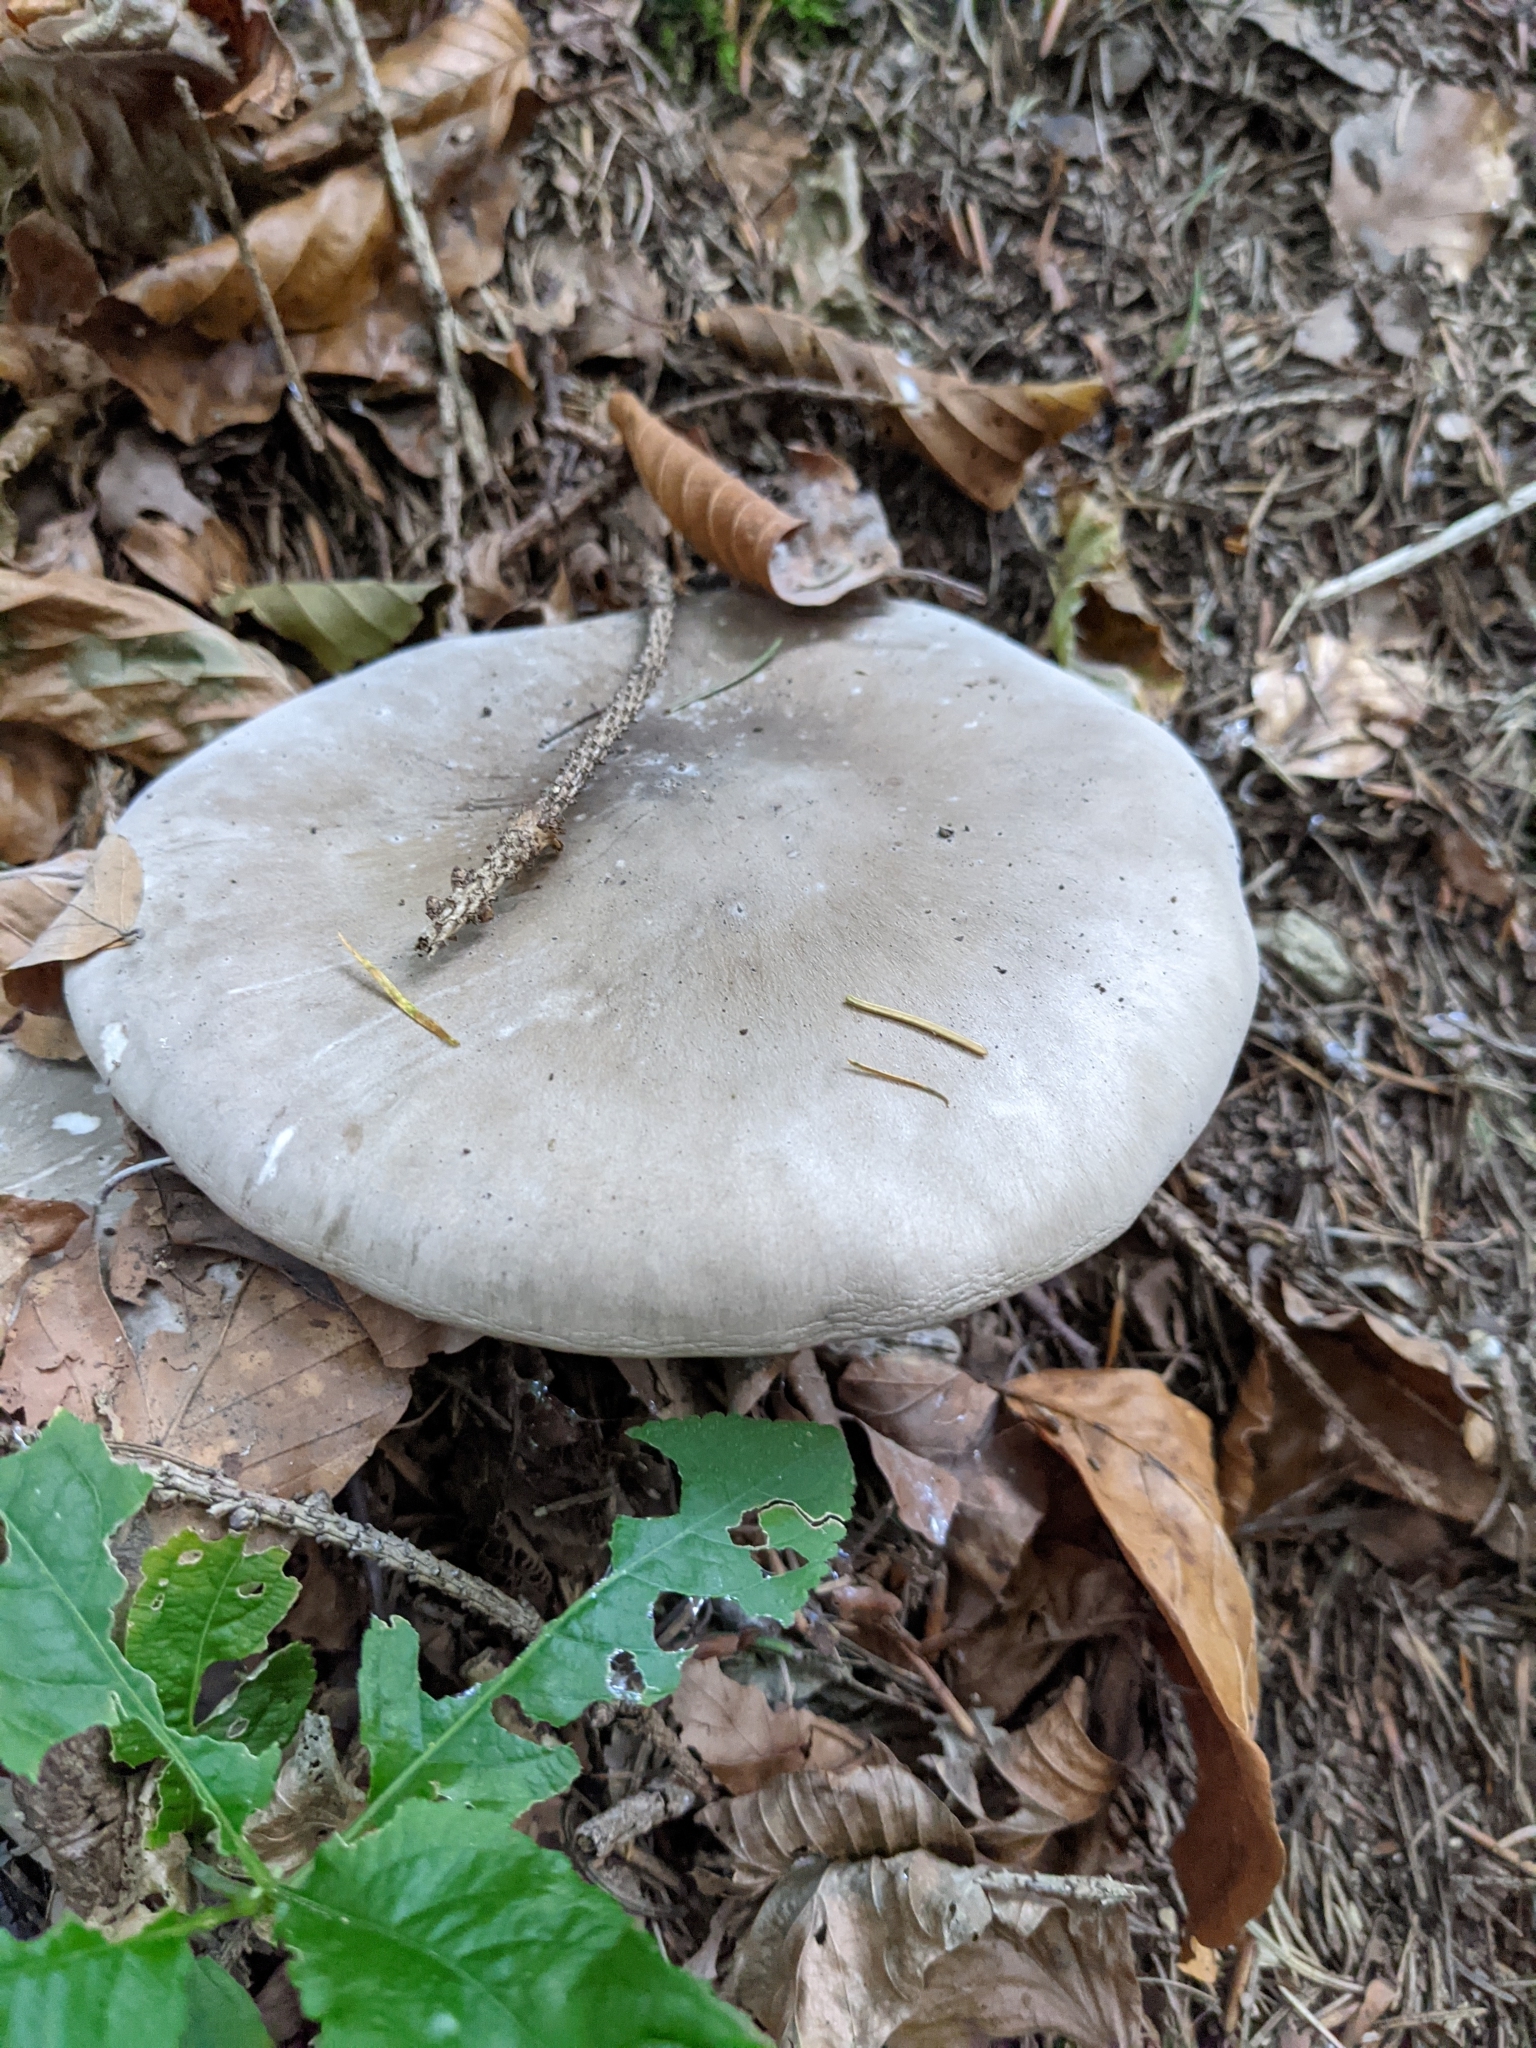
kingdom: Fungi
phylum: Basidiomycota
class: Agaricomycetes
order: Agaricales
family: Tricholomataceae
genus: Clitocybe
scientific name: Clitocybe nebularis
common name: Clouded agaric
